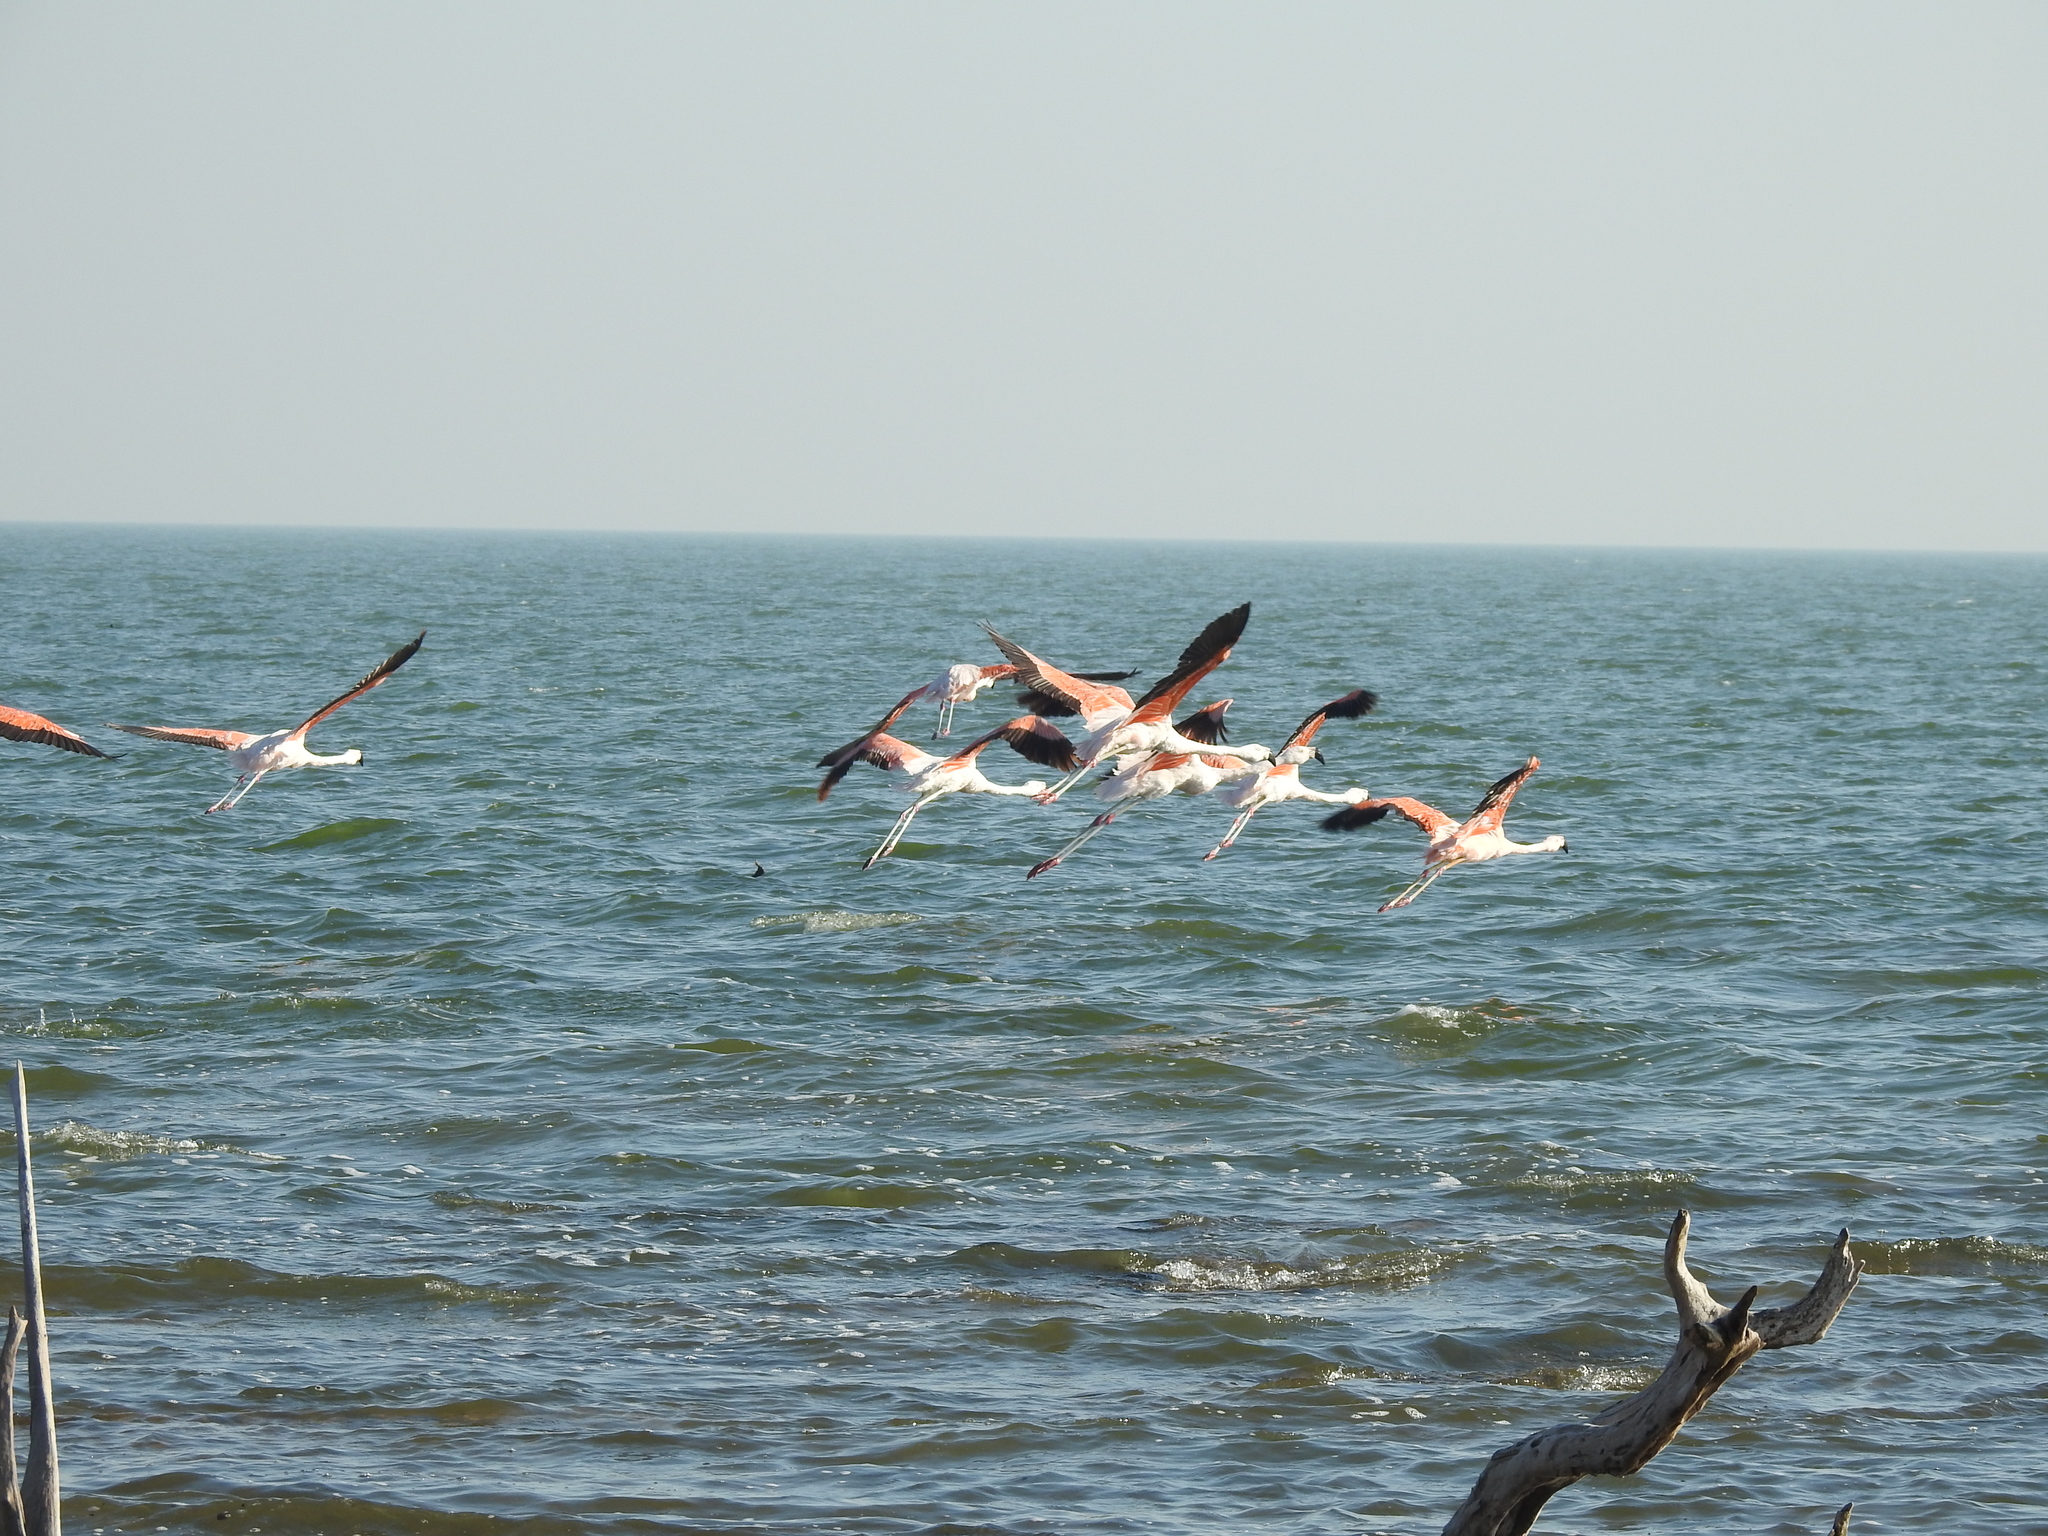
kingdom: Animalia
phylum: Chordata
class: Aves
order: Phoenicopteriformes
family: Phoenicopteridae
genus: Phoenicopterus
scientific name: Phoenicopterus chilensis
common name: Chilean flamingo
